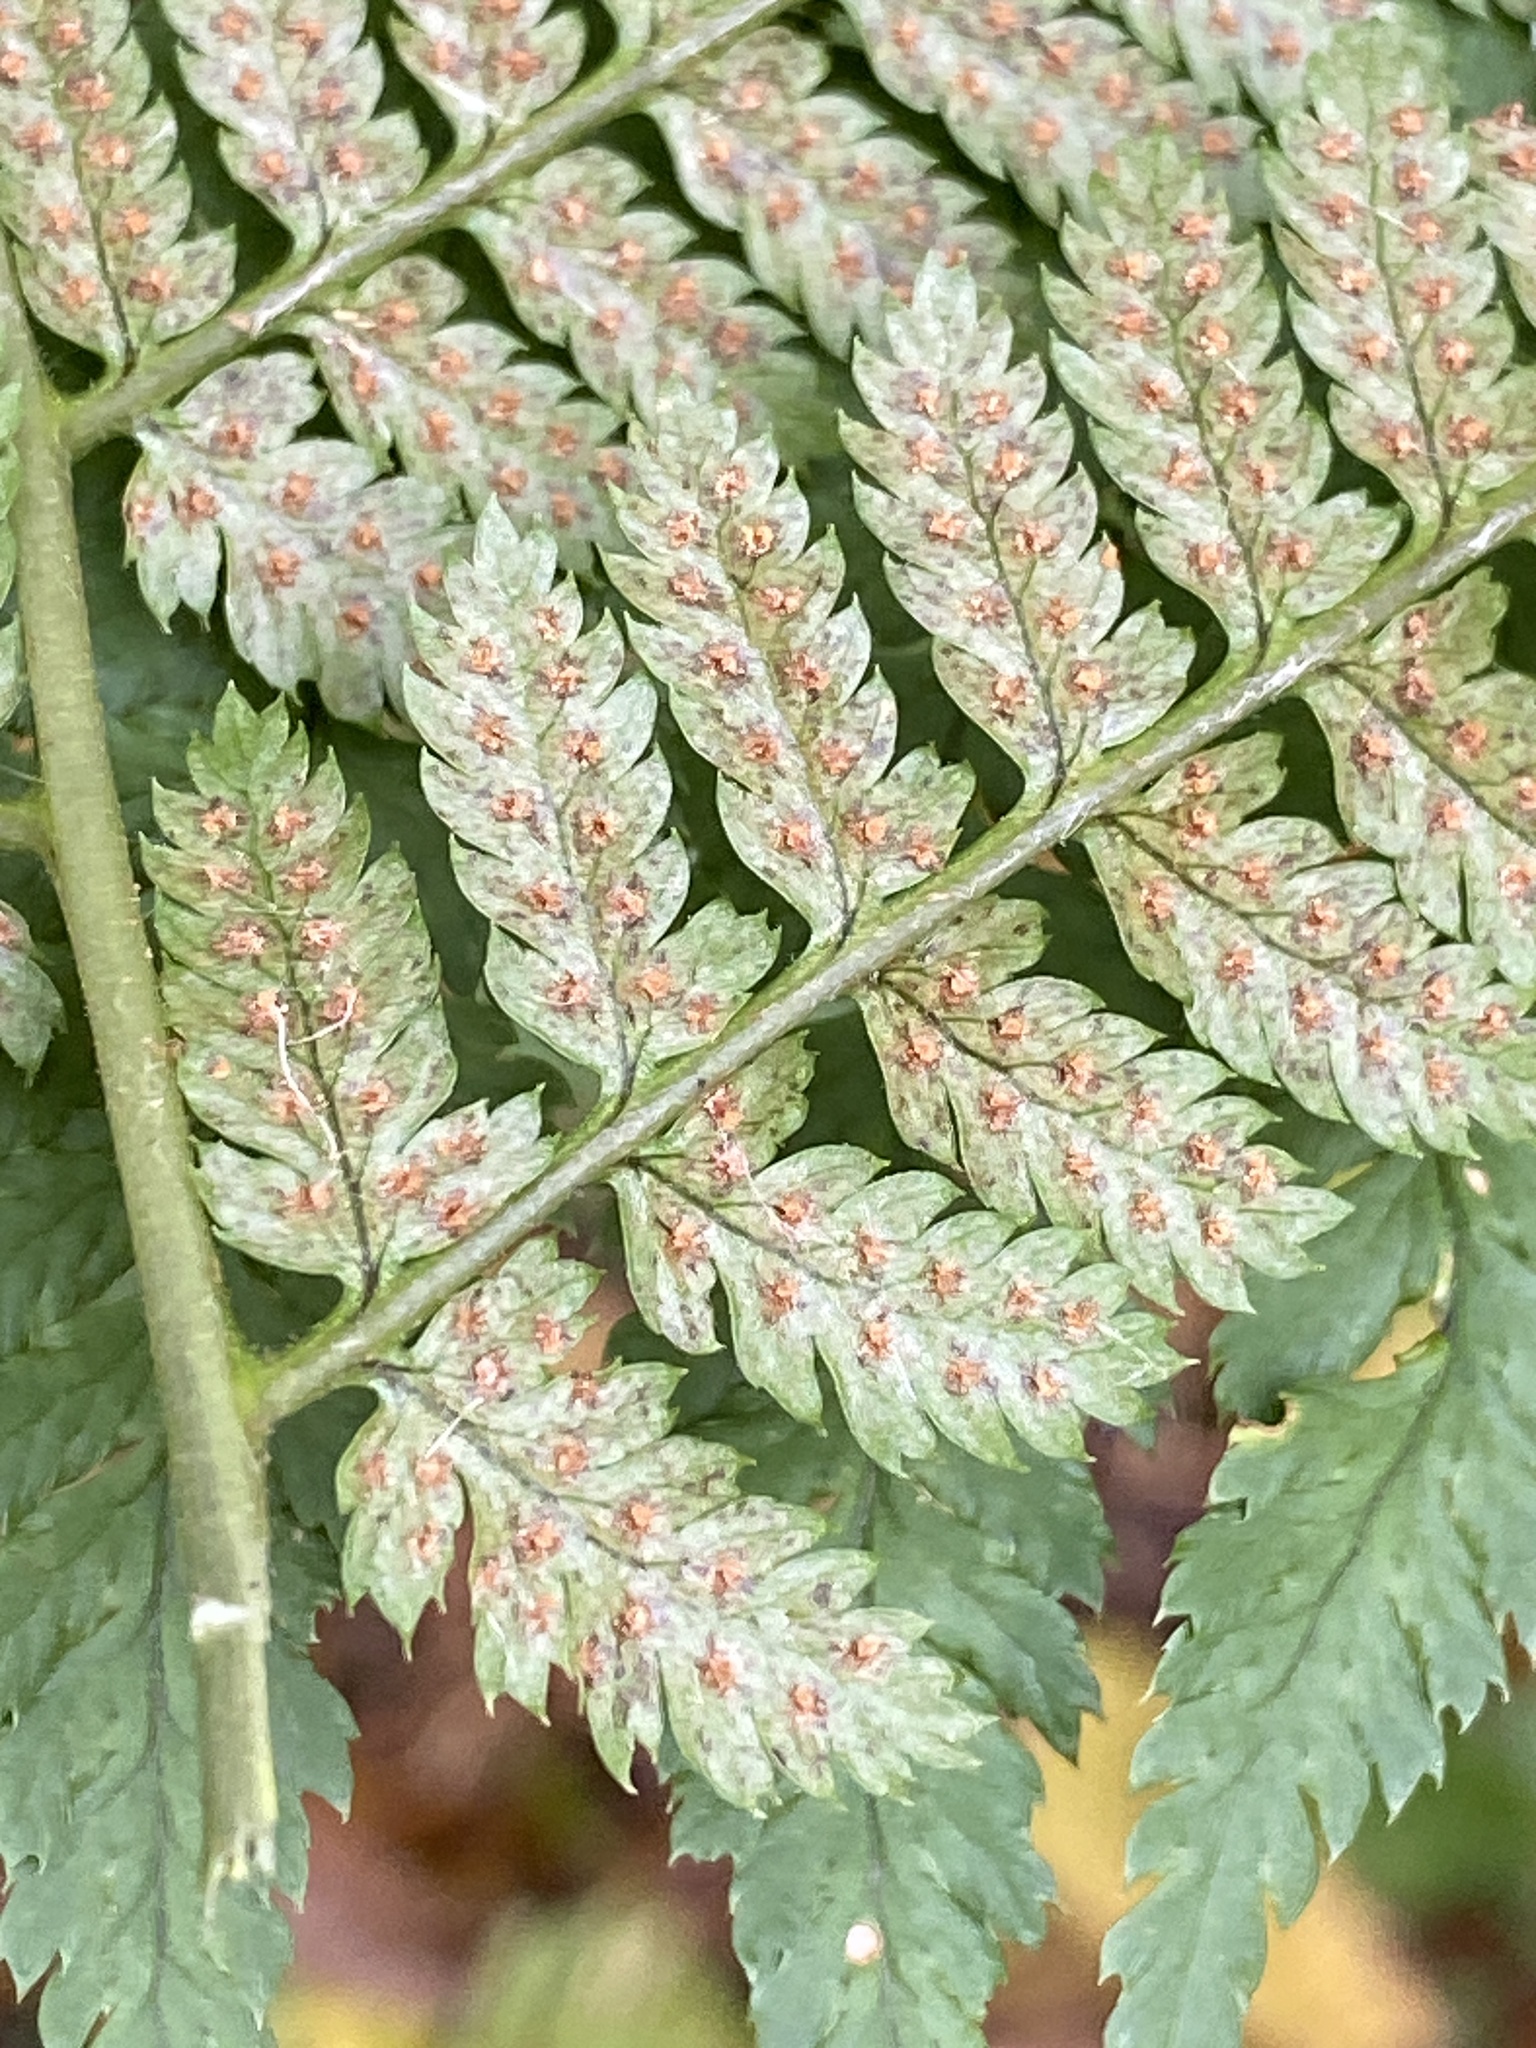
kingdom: Plantae
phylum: Tracheophyta
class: Polypodiopsida
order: Polypodiales
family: Dryopteridaceae
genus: Dryopteris
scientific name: Dryopteris intermedia
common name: Evergreen wood fern
